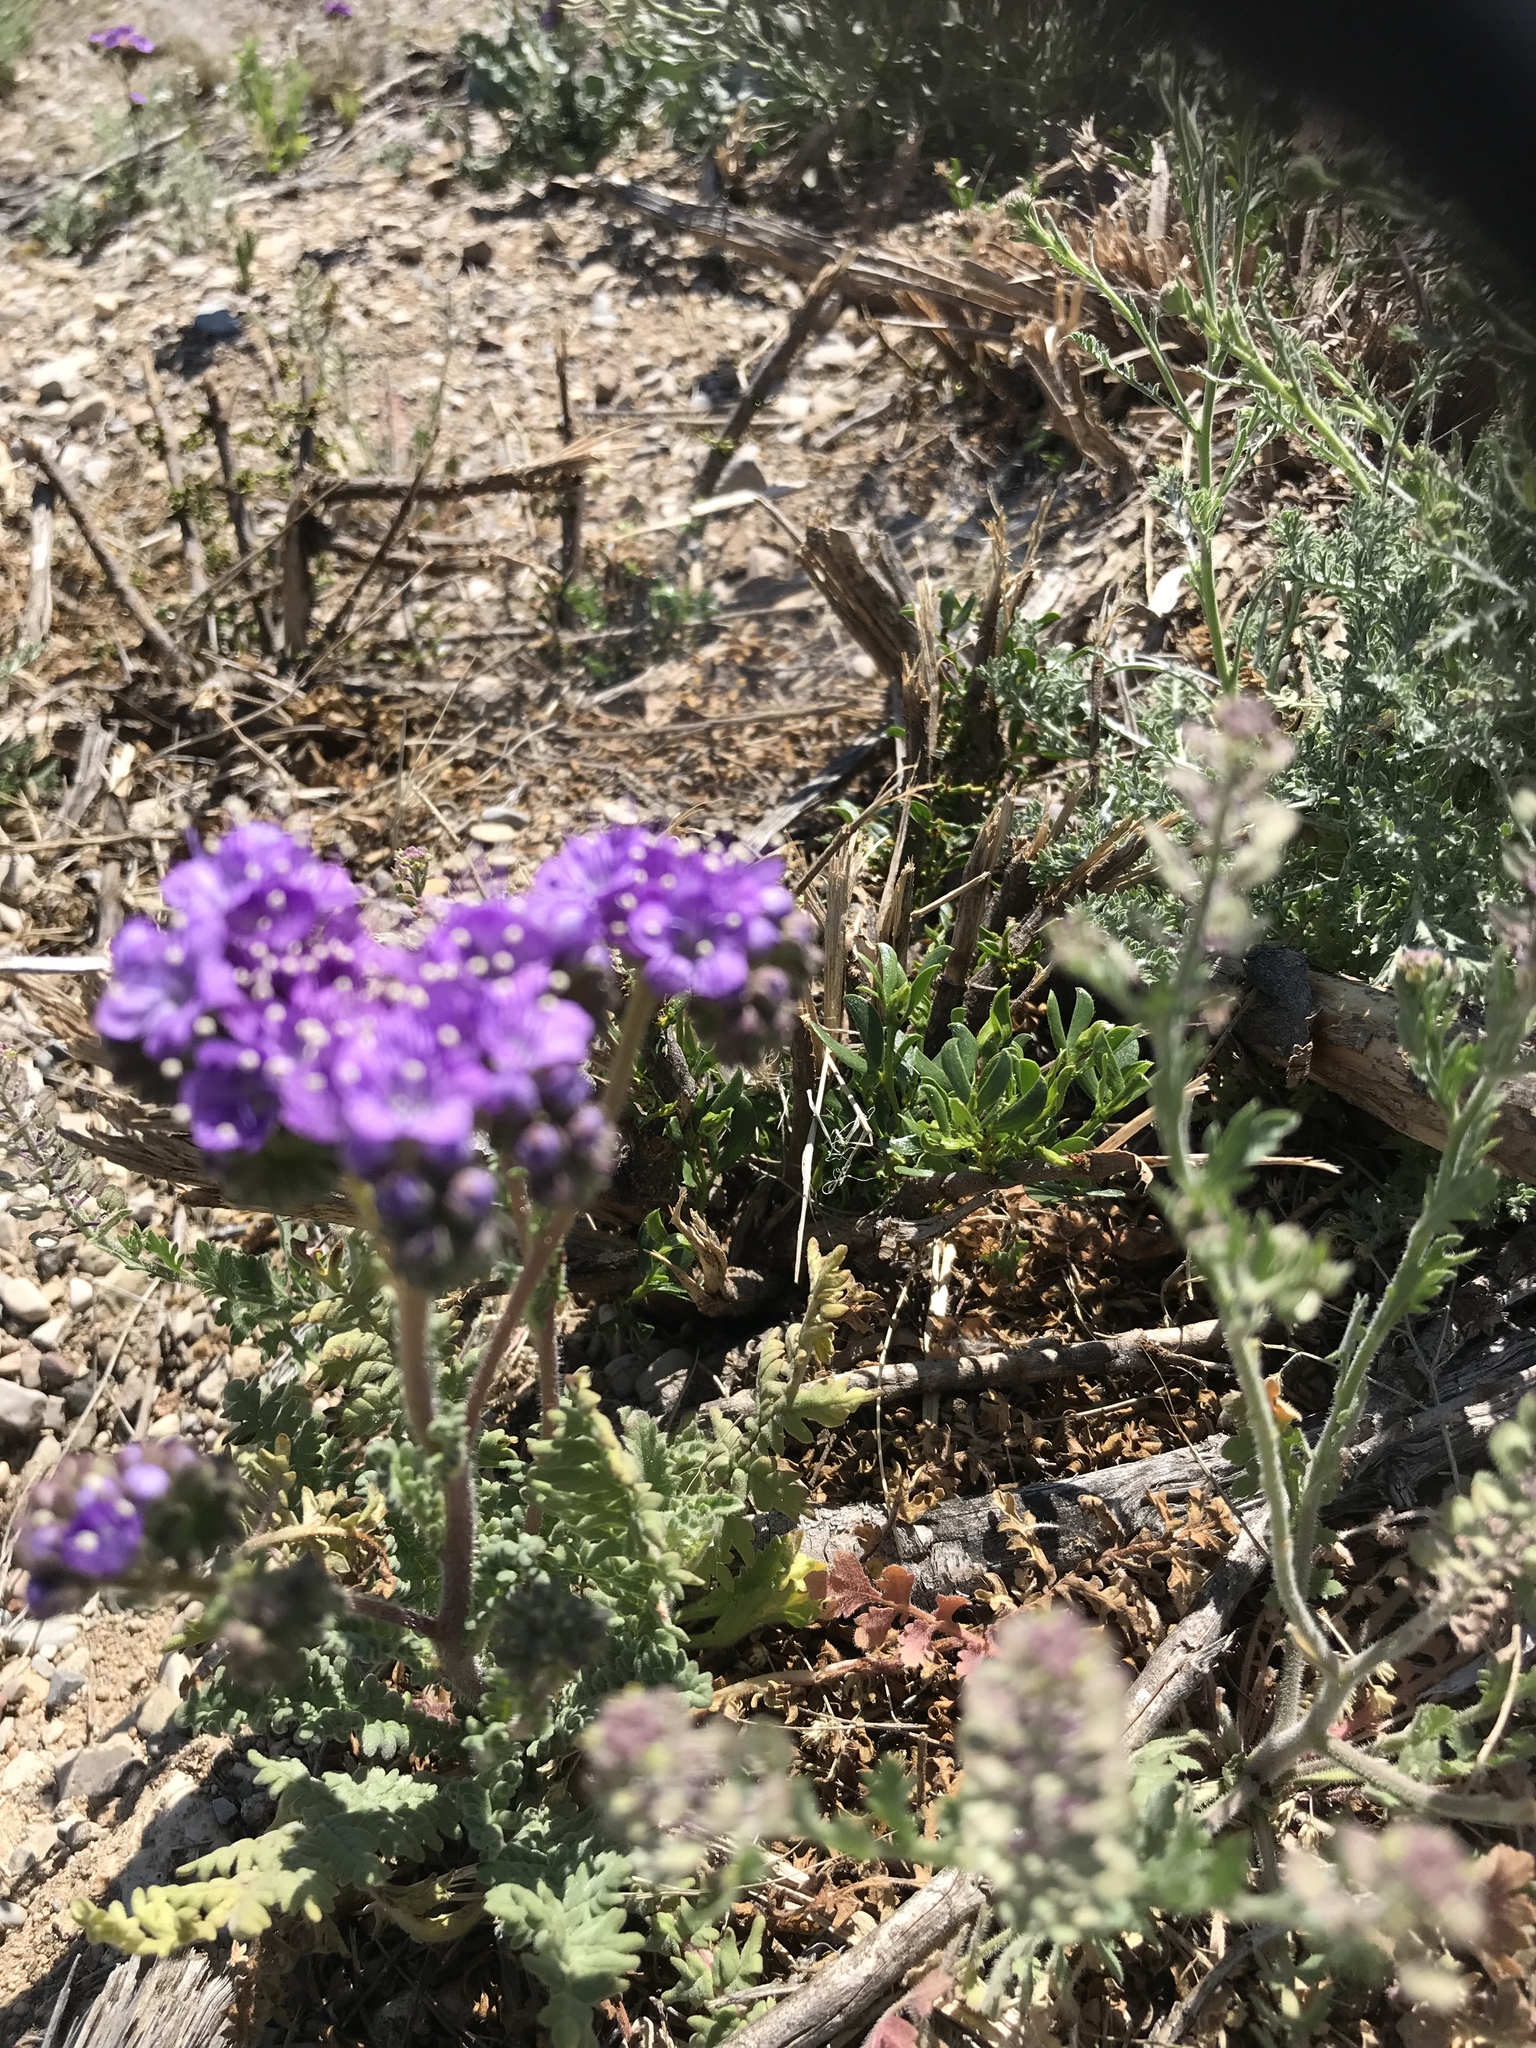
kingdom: Plantae
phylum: Tracheophyta
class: Magnoliopsida
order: Boraginales
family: Hydrophyllaceae
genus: Phacelia
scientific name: Phacelia popei
